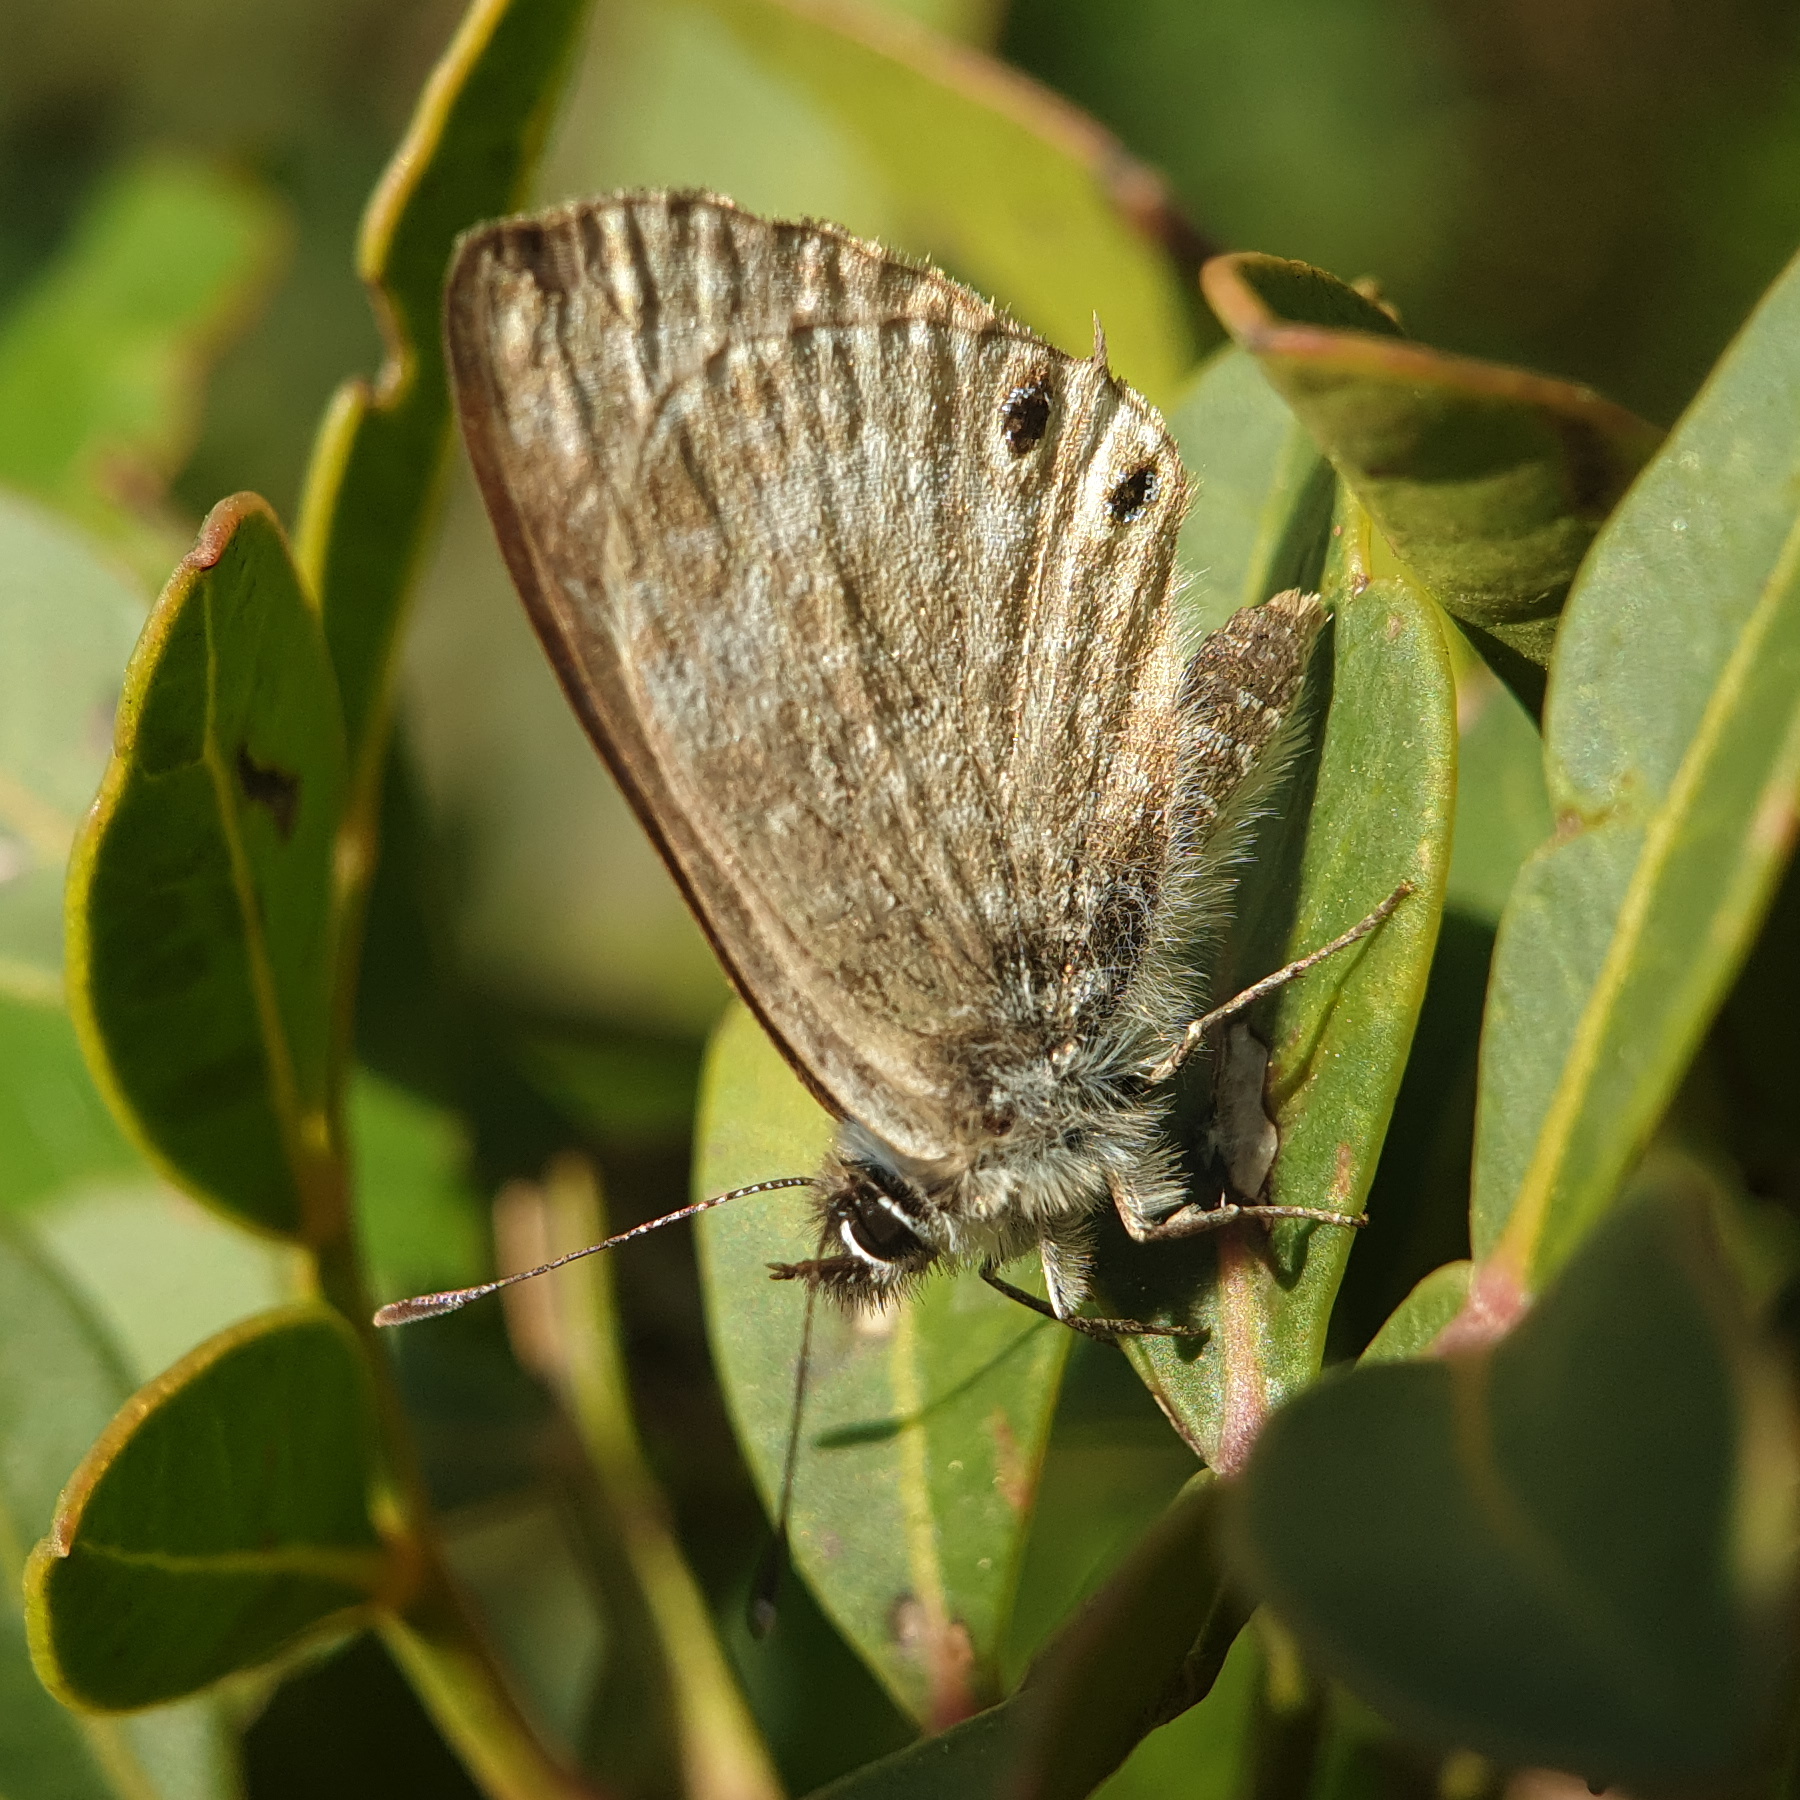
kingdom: Animalia
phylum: Arthropoda
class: Insecta
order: Lepidoptera
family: Lycaenidae
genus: Leptotes
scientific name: Leptotes pirithous
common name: Lang's short-tailed blue
